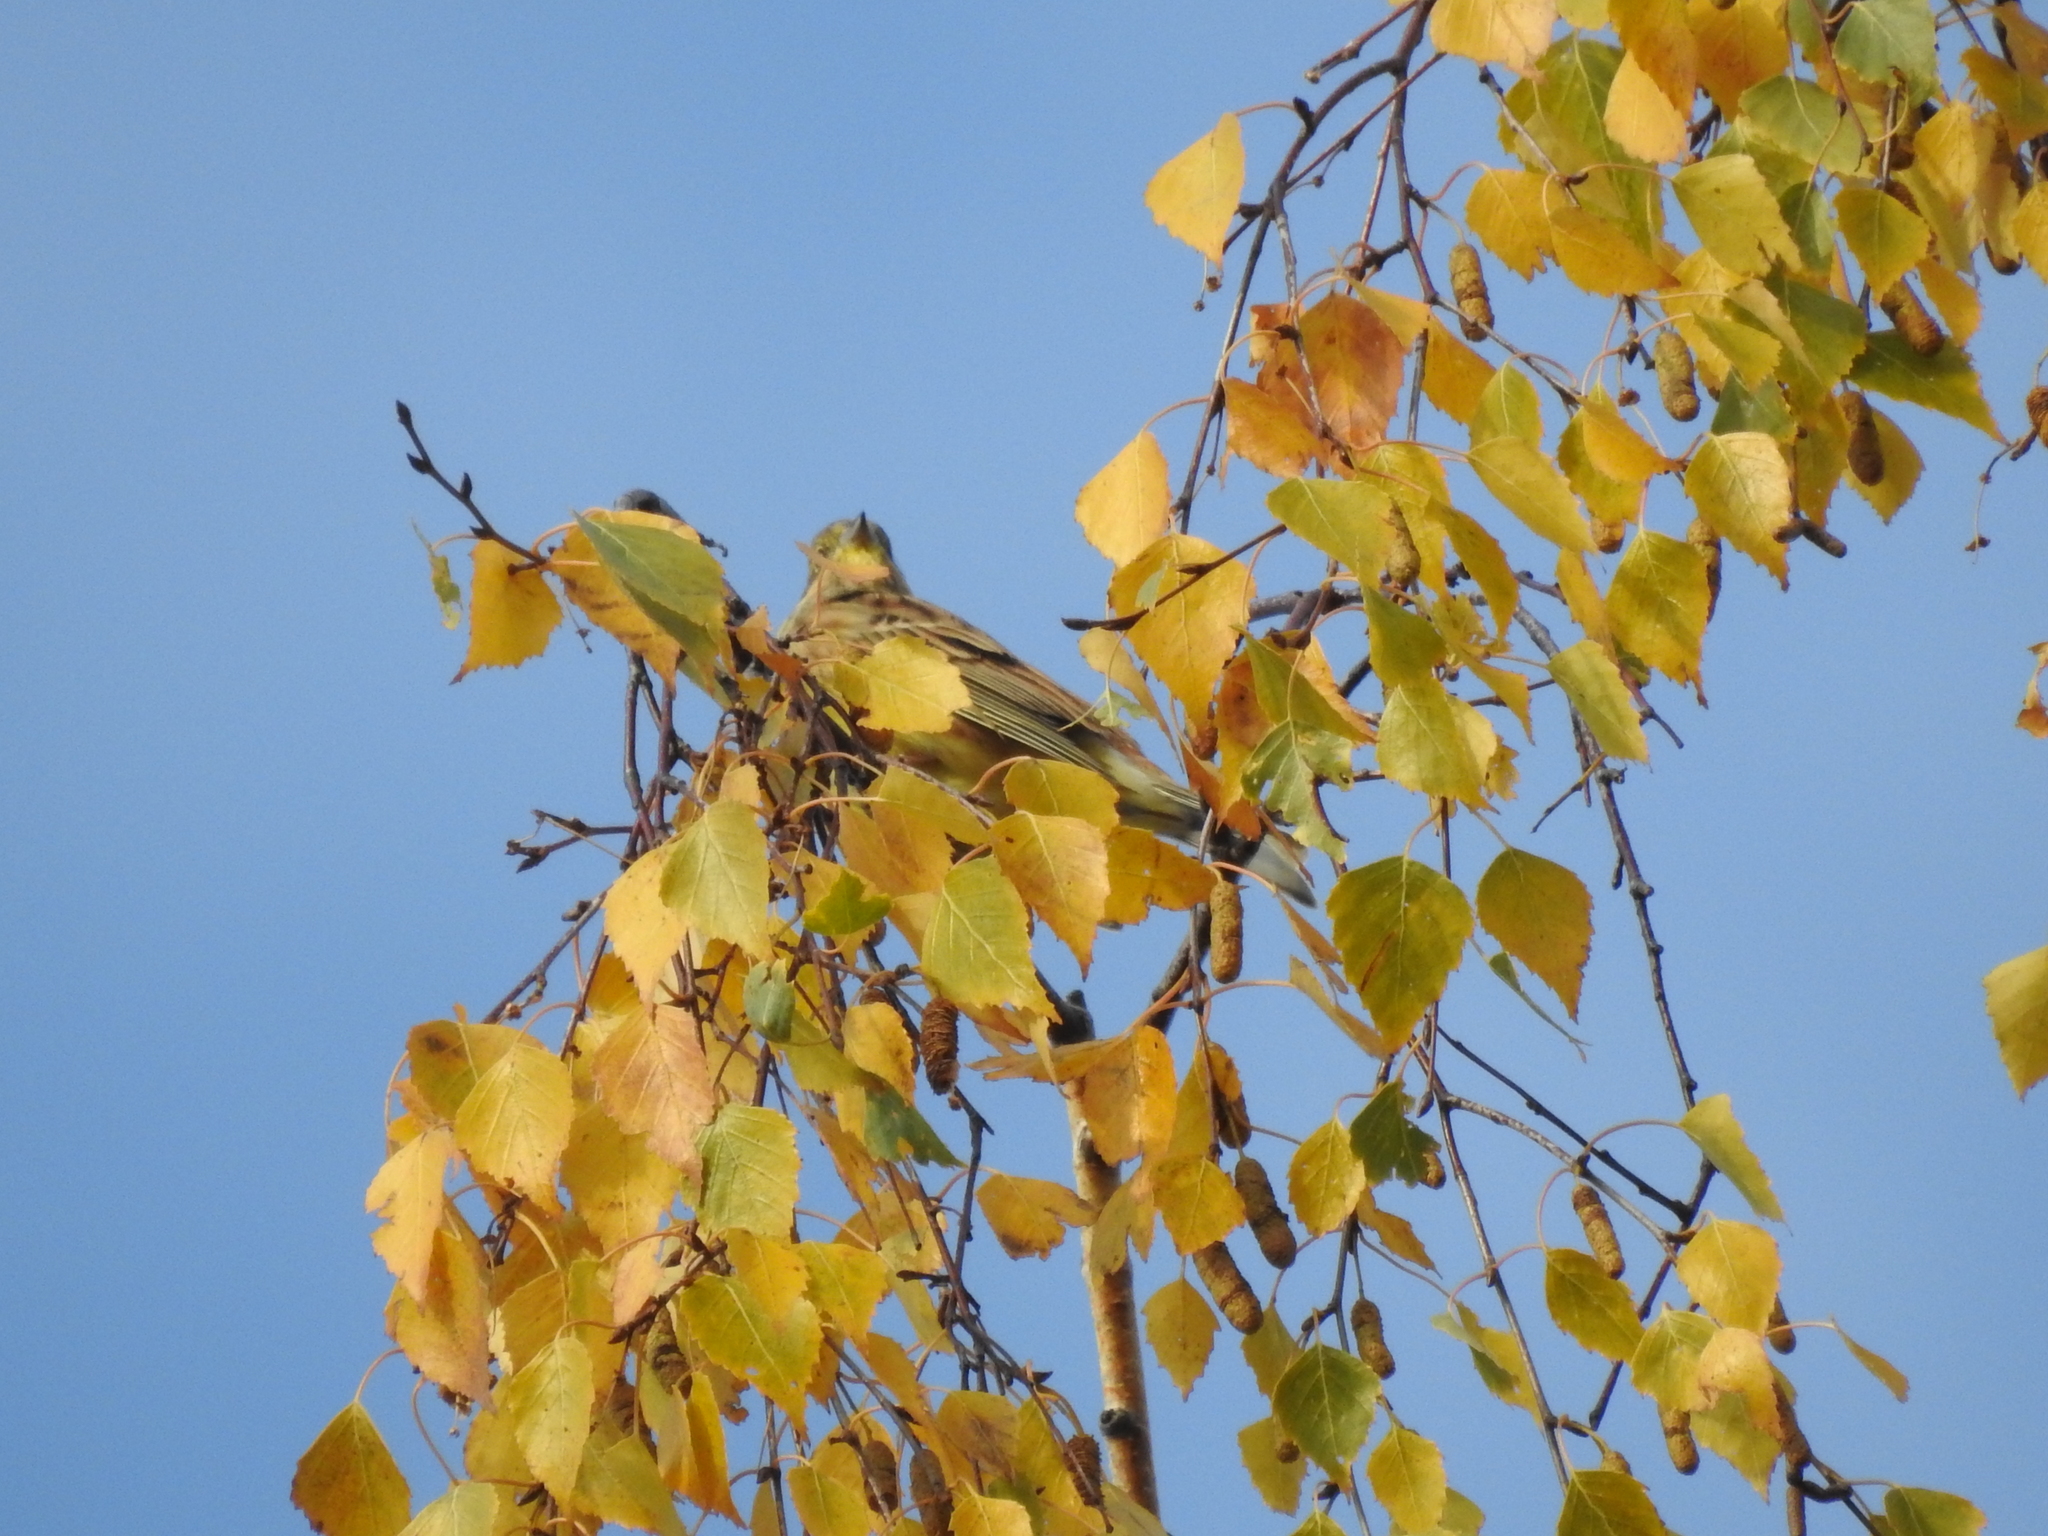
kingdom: Animalia
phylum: Chordata
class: Aves
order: Passeriformes
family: Emberizidae
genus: Emberiza
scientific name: Emberiza citrinella
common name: Yellowhammer
